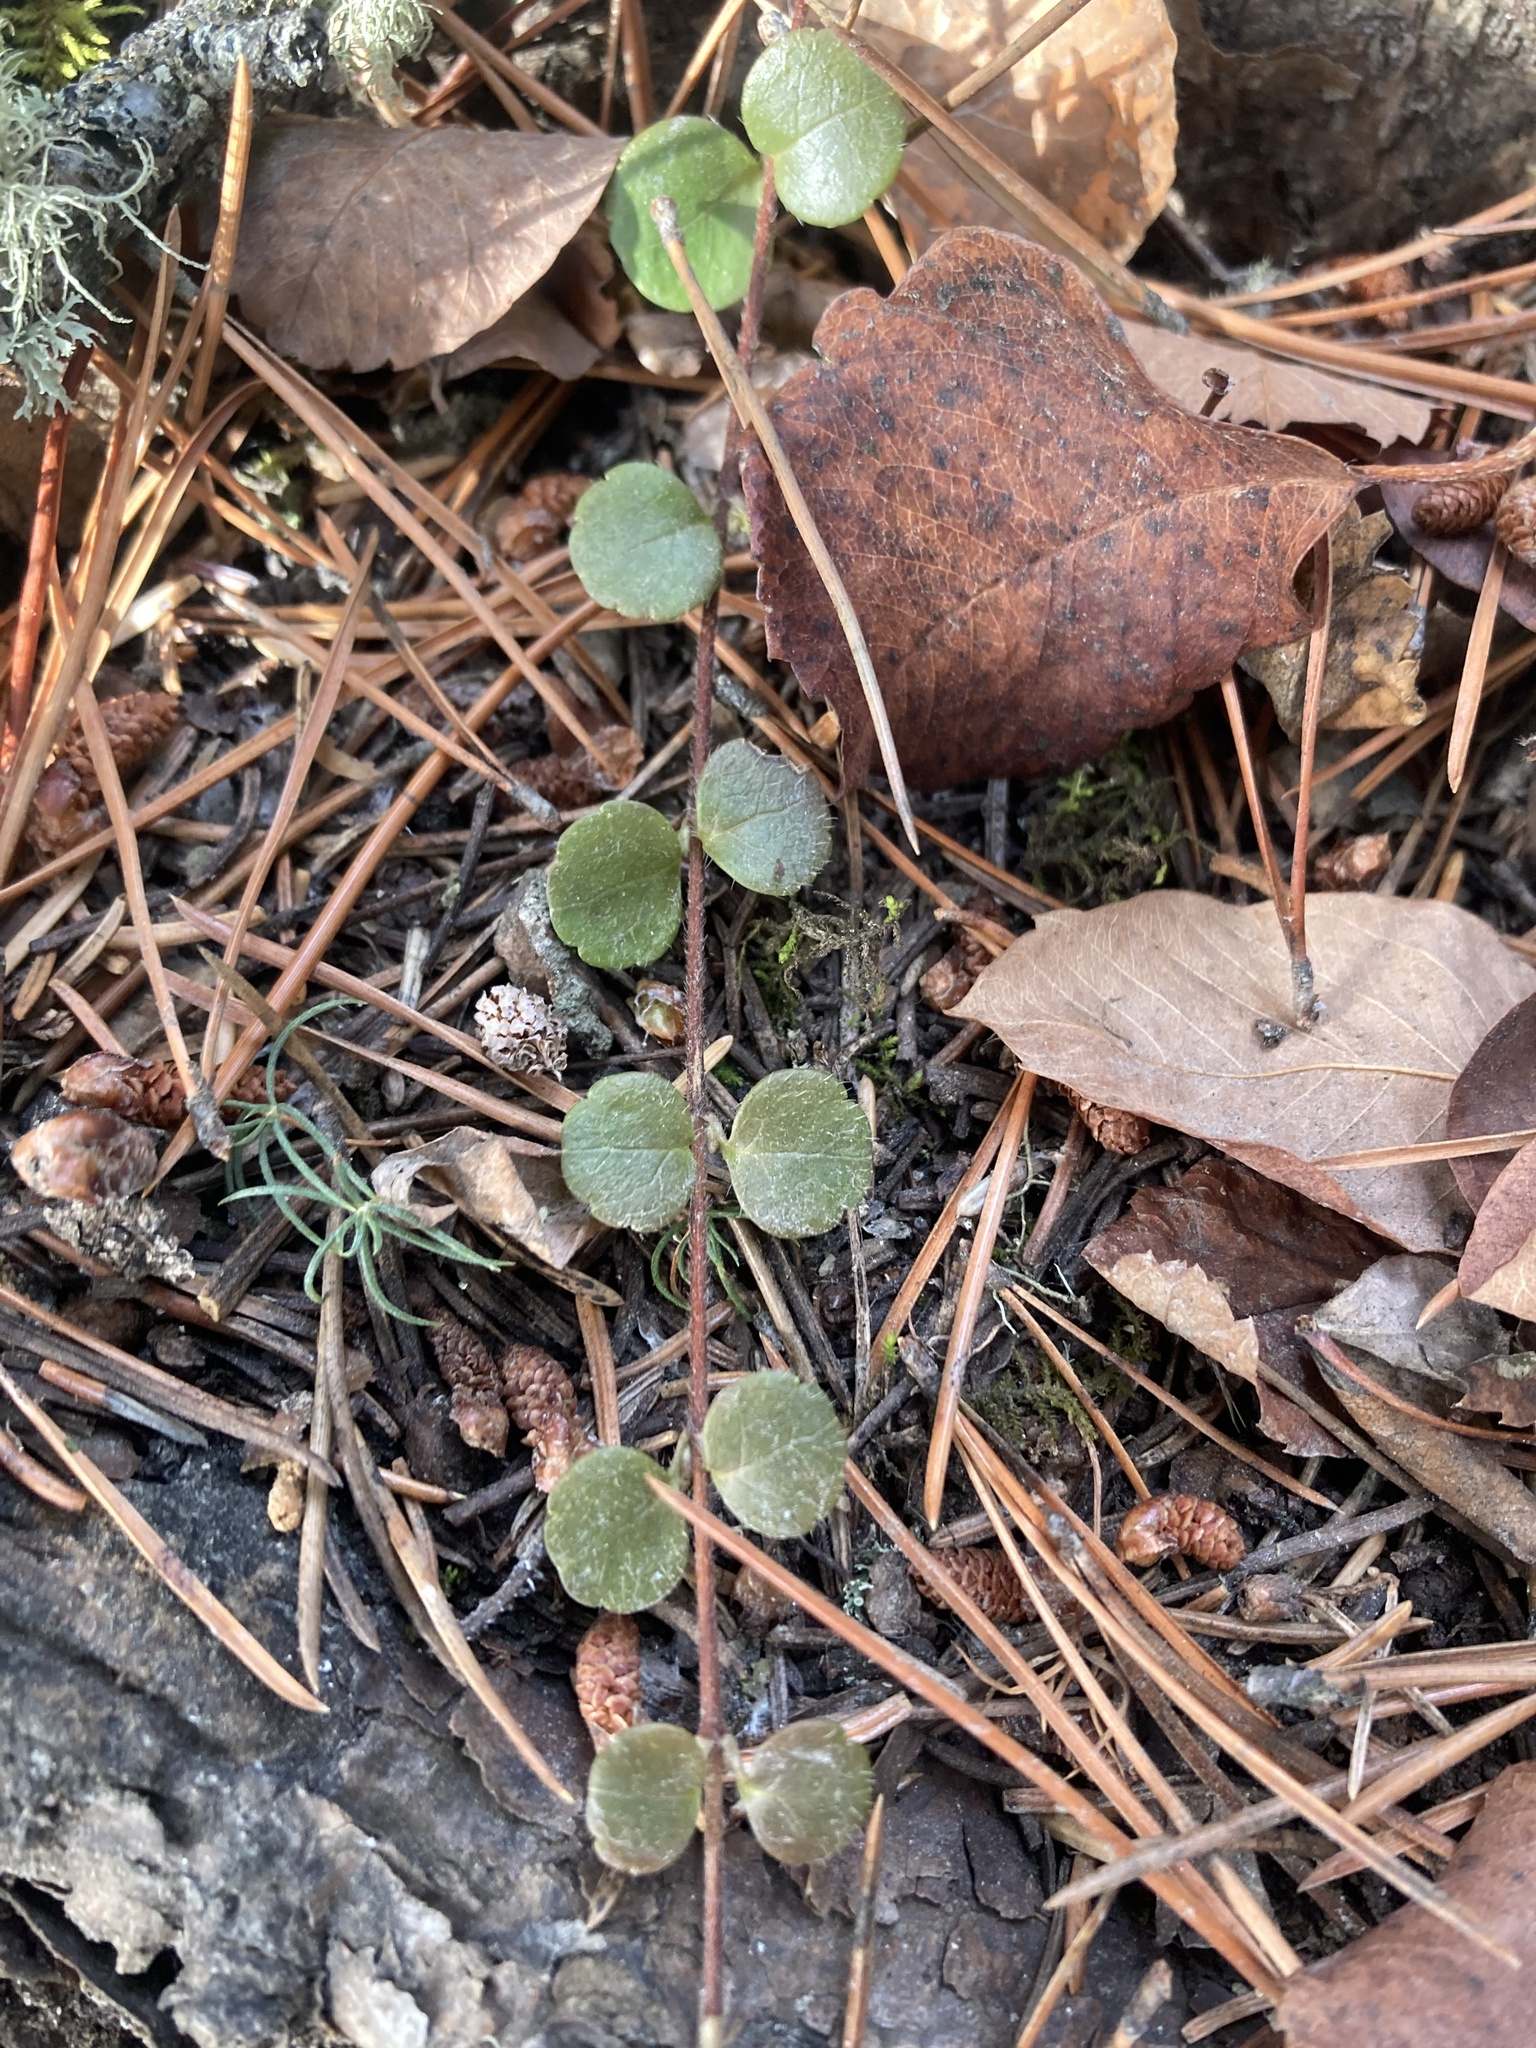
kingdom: Plantae
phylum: Tracheophyta
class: Magnoliopsida
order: Dipsacales
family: Caprifoliaceae
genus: Linnaea
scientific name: Linnaea borealis
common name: Twinflower
